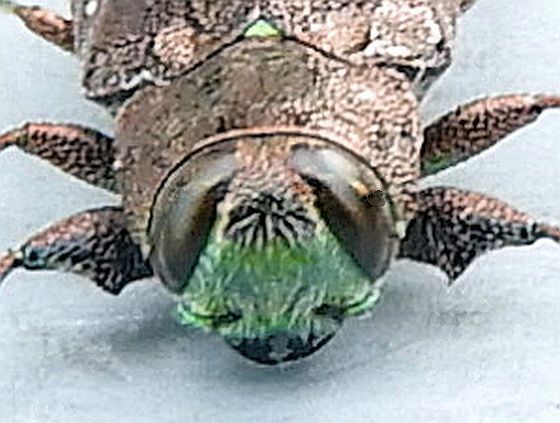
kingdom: Animalia
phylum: Arthropoda
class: Insecta
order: Coleoptera
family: Buprestidae
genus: Chrysobothris
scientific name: Chrysobothris sexsignata
